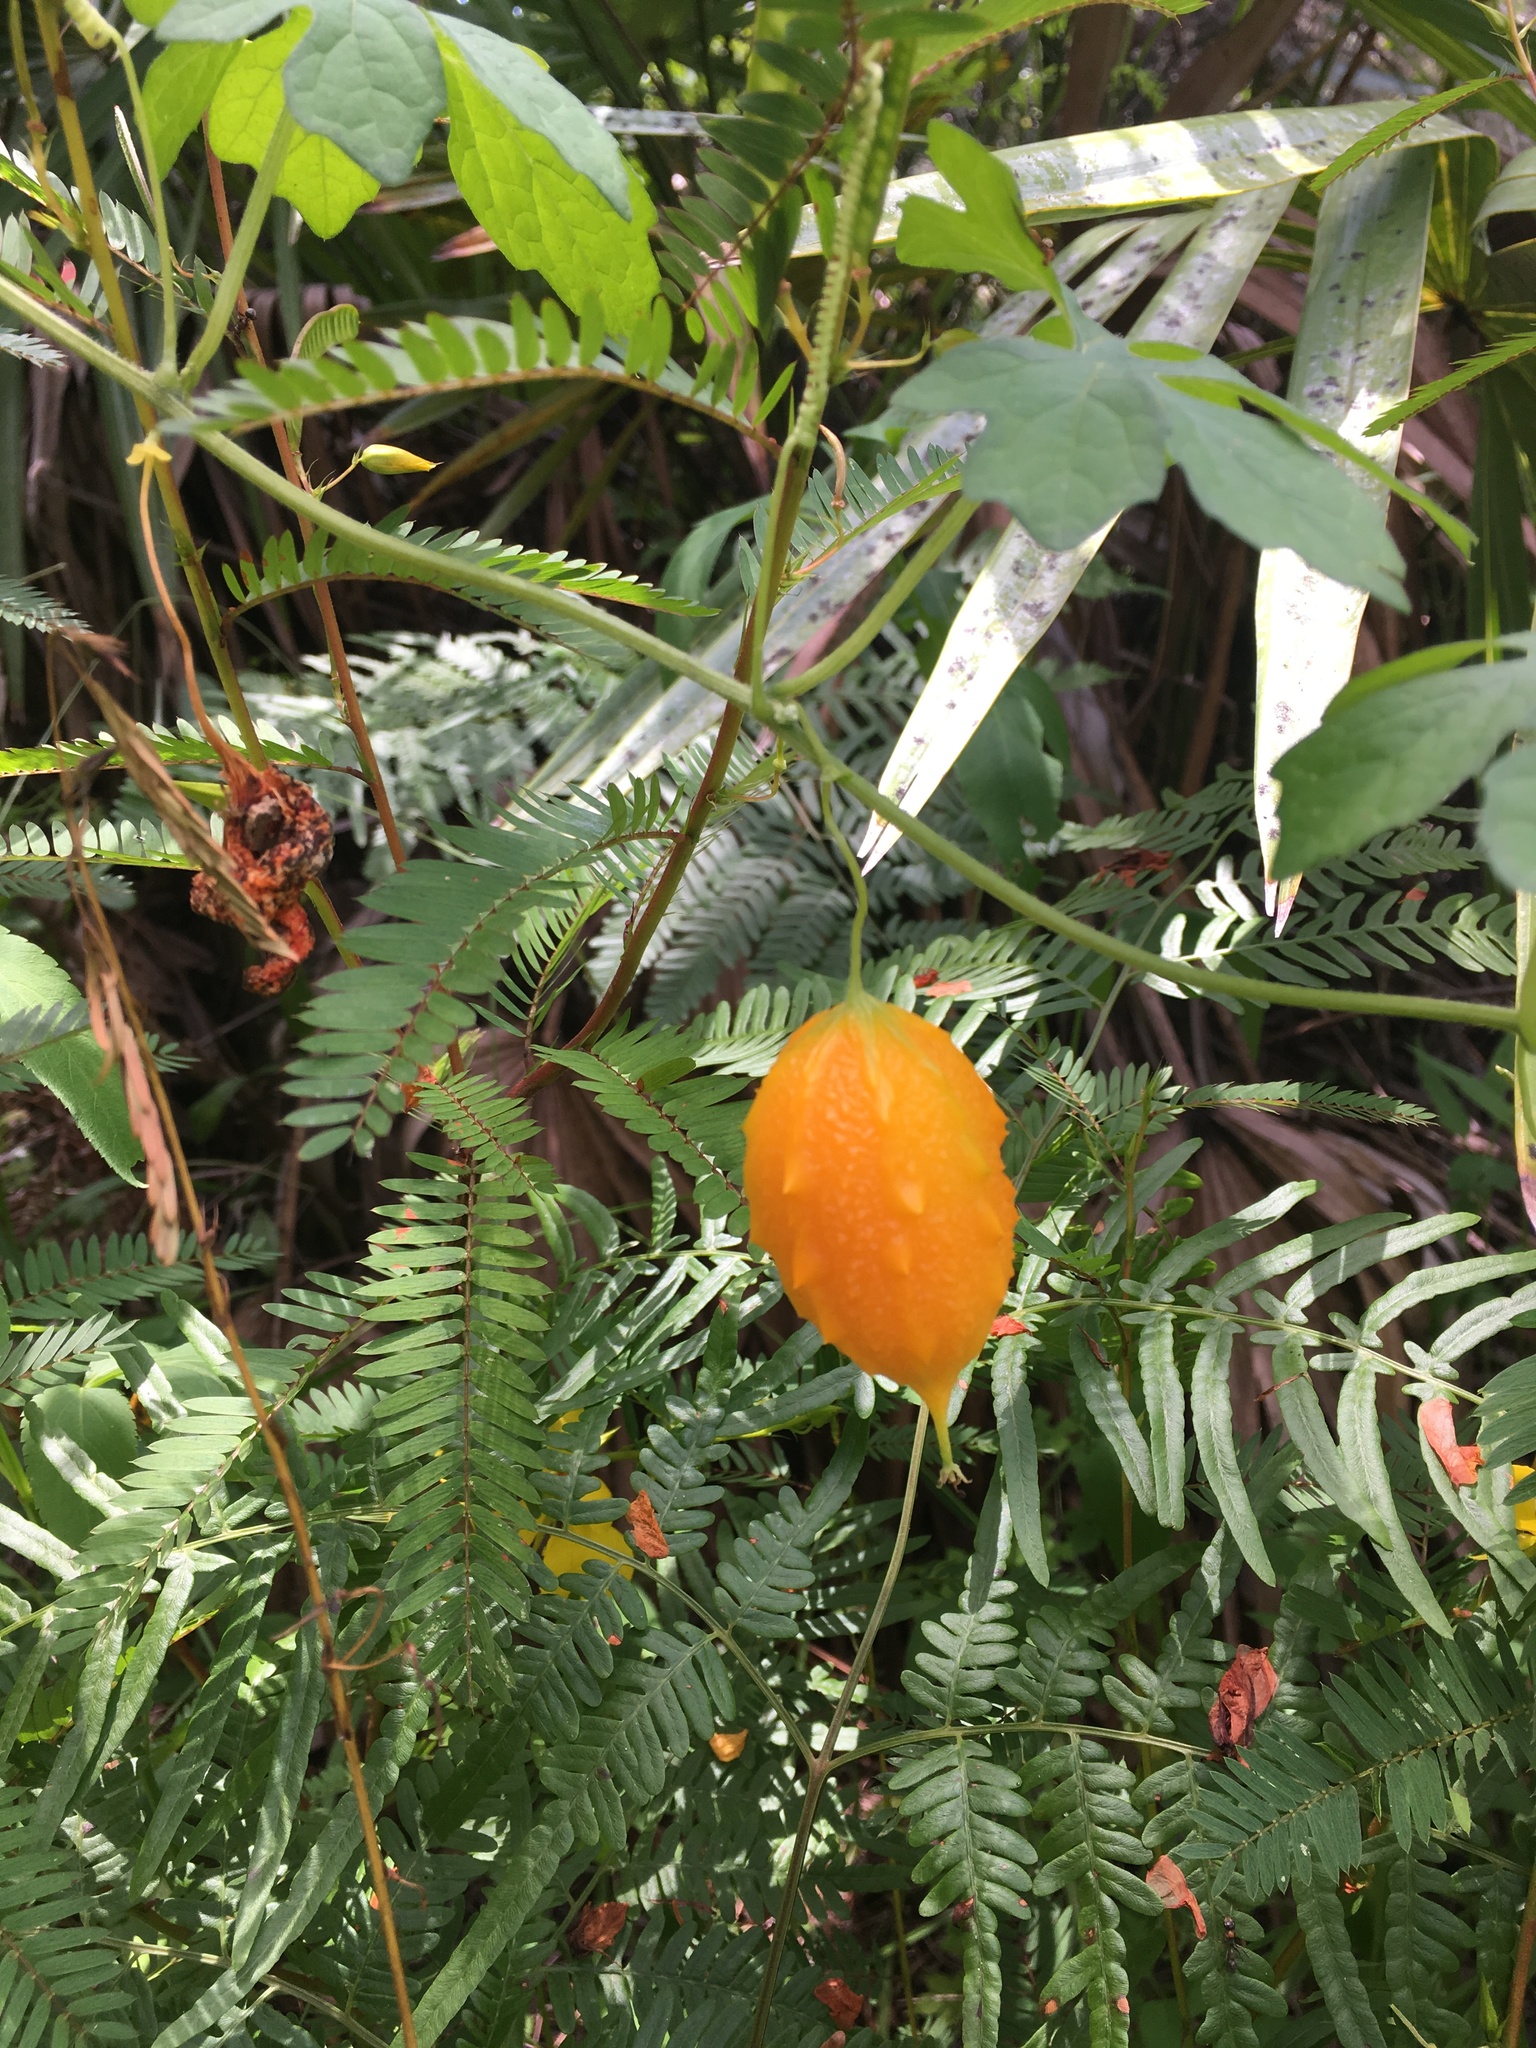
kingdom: Plantae
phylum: Tracheophyta
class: Magnoliopsida
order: Cucurbitales
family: Cucurbitaceae
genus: Momordica
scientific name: Momordica charantia
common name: Balsampear
